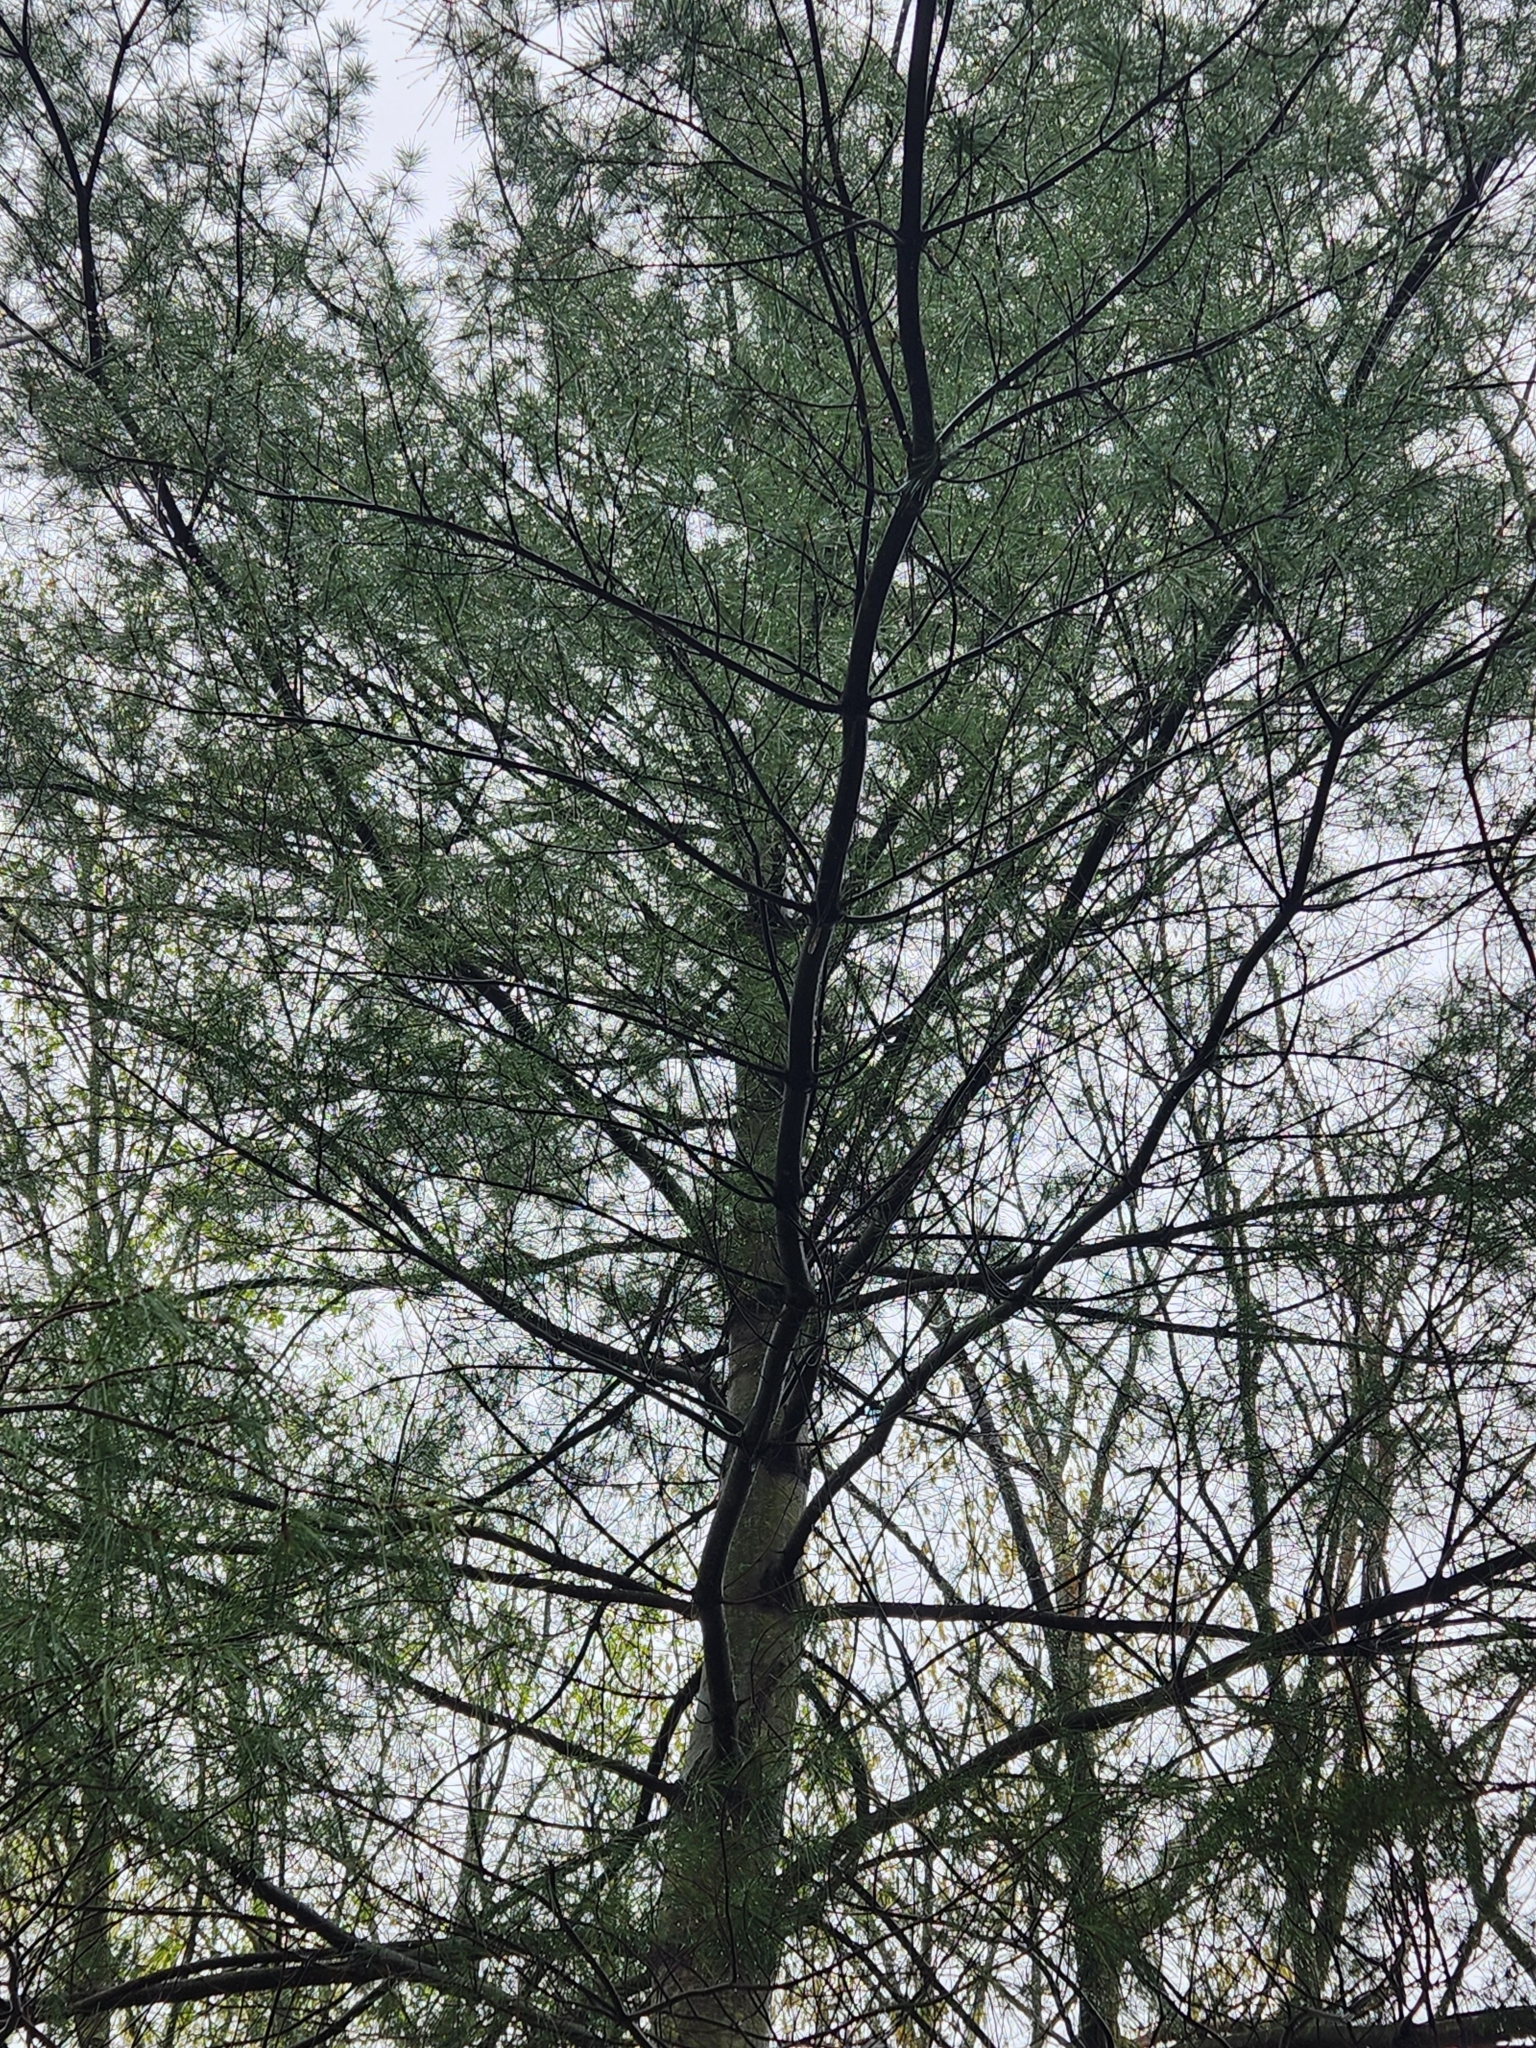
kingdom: Plantae
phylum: Tracheophyta
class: Pinopsida
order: Pinales
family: Pinaceae
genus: Pinus
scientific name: Pinus strobus
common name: Weymouth pine
